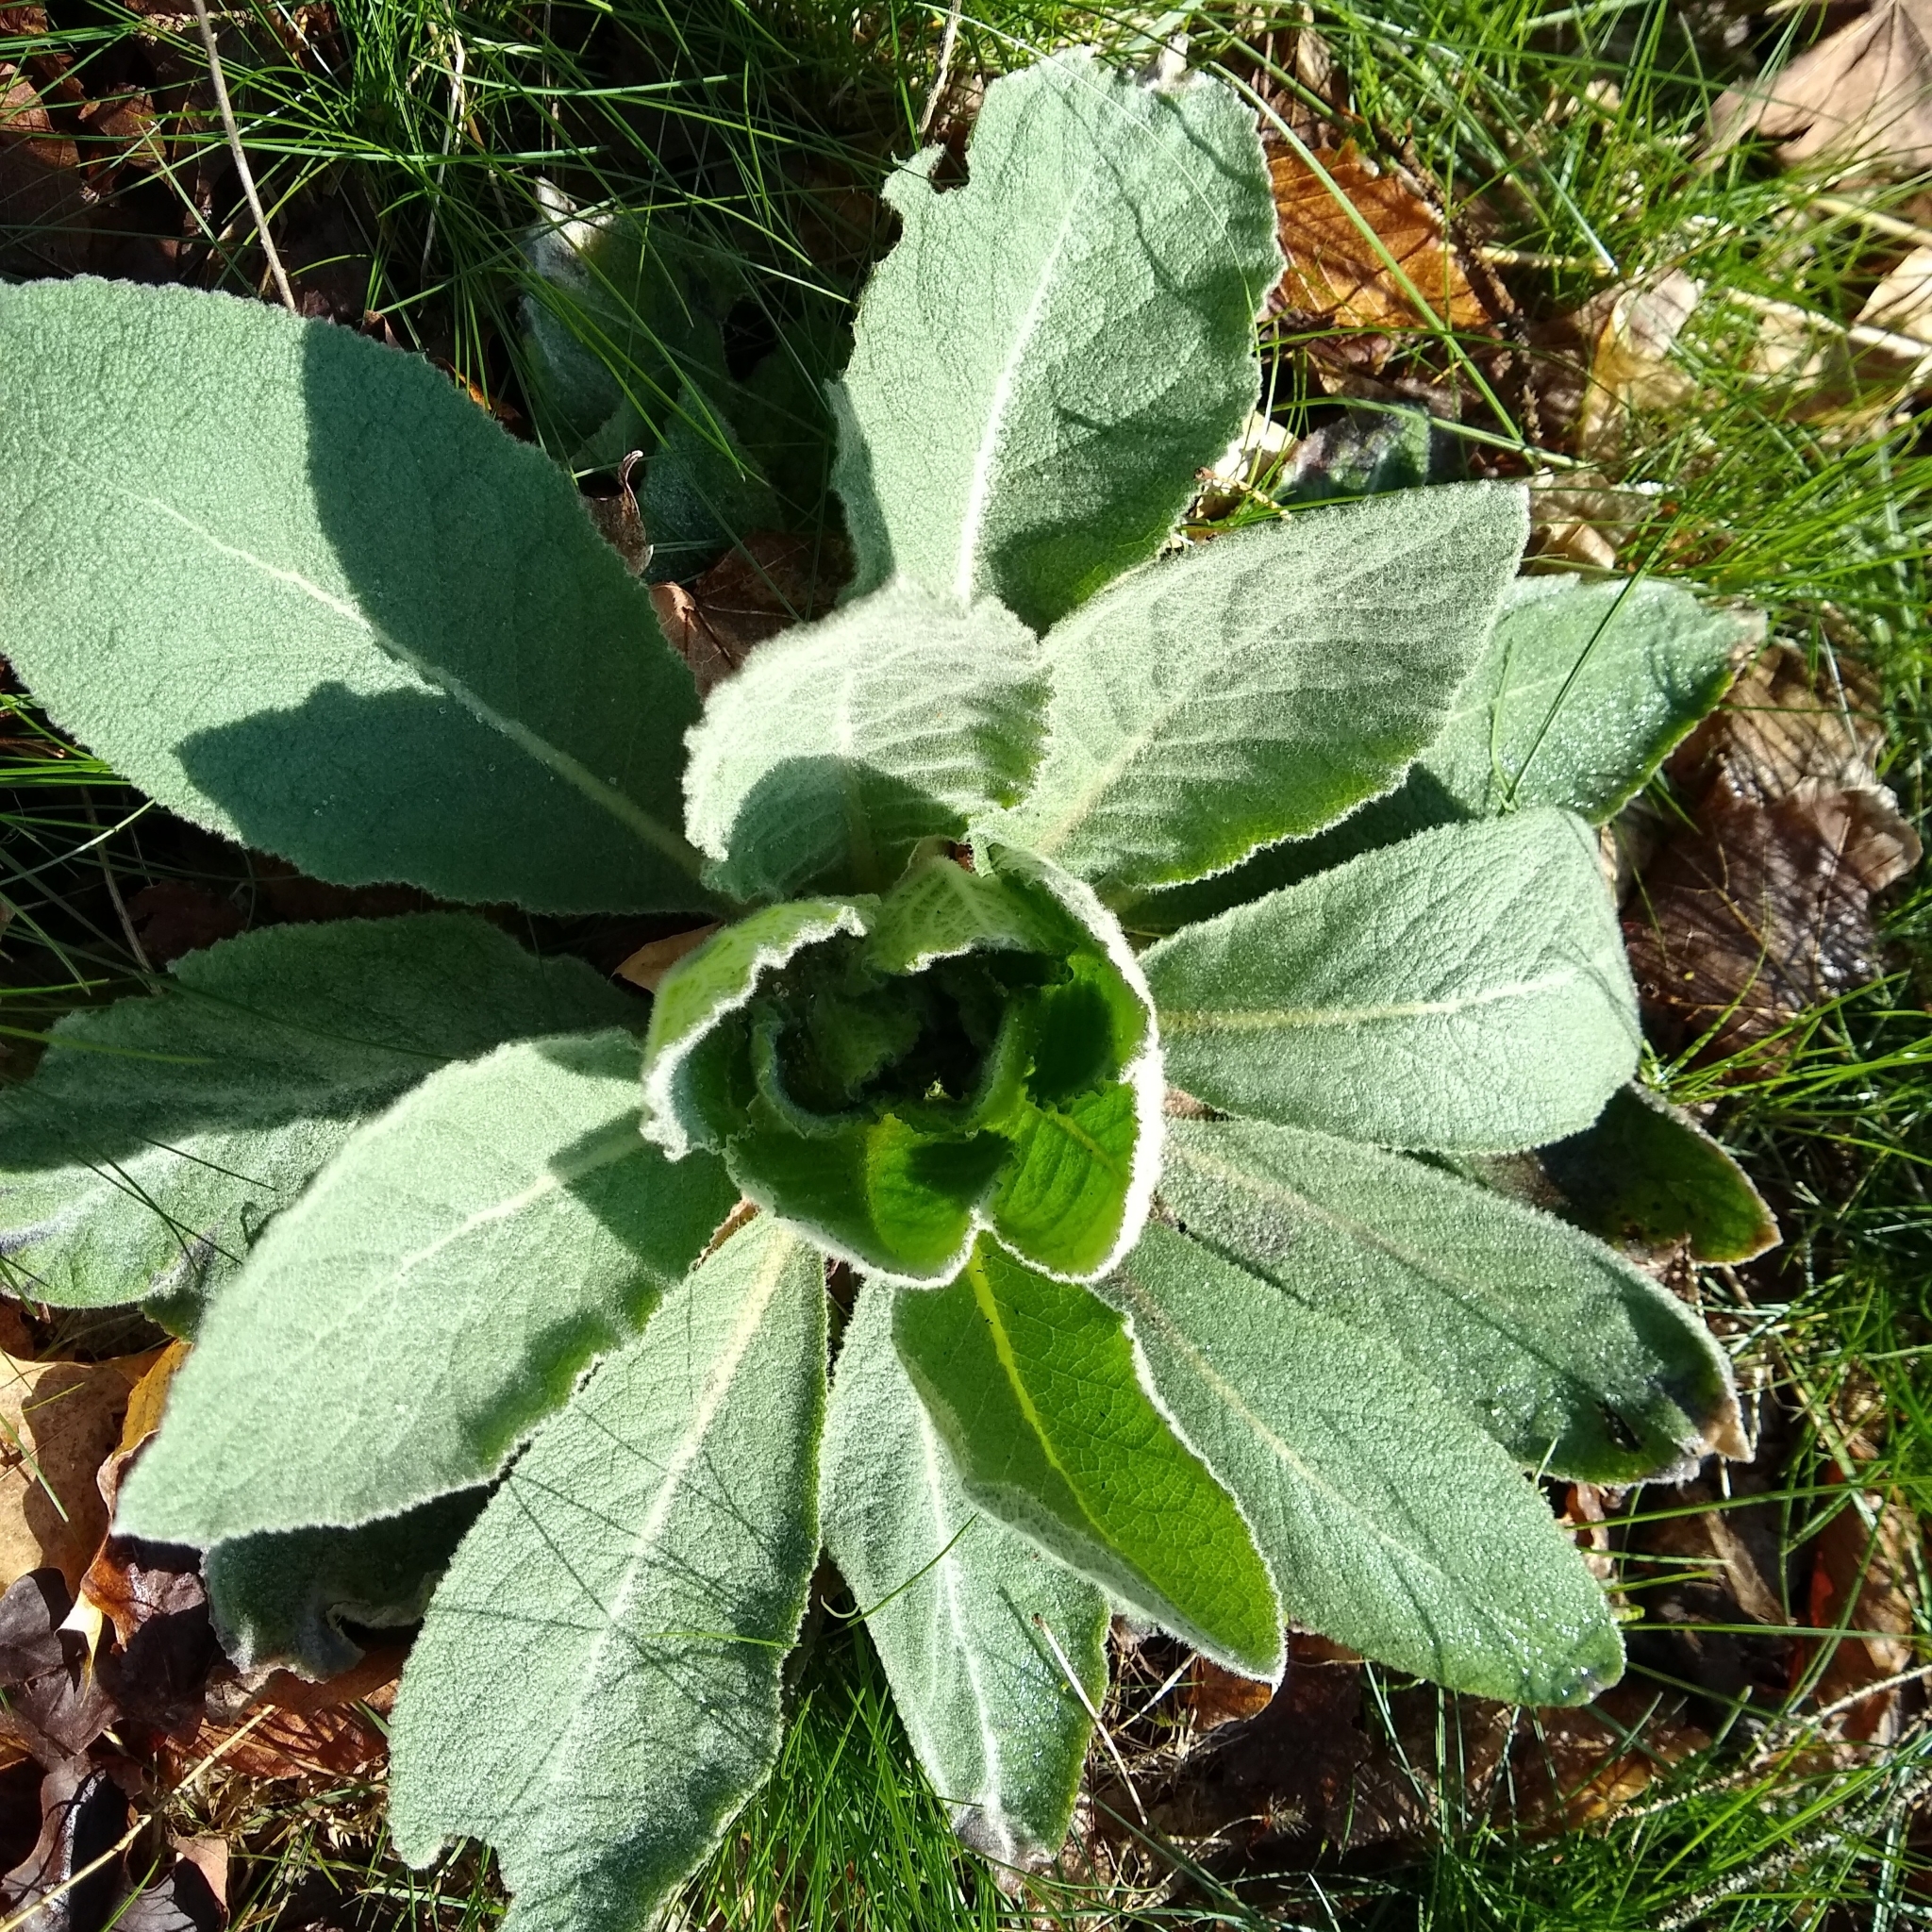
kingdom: Plantae
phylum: Tracheophyta
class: Magnoliopsida
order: Lamiales
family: Scrophulariaceae
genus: Verbascum
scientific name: Verbascum thapsus
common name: Common mullein
